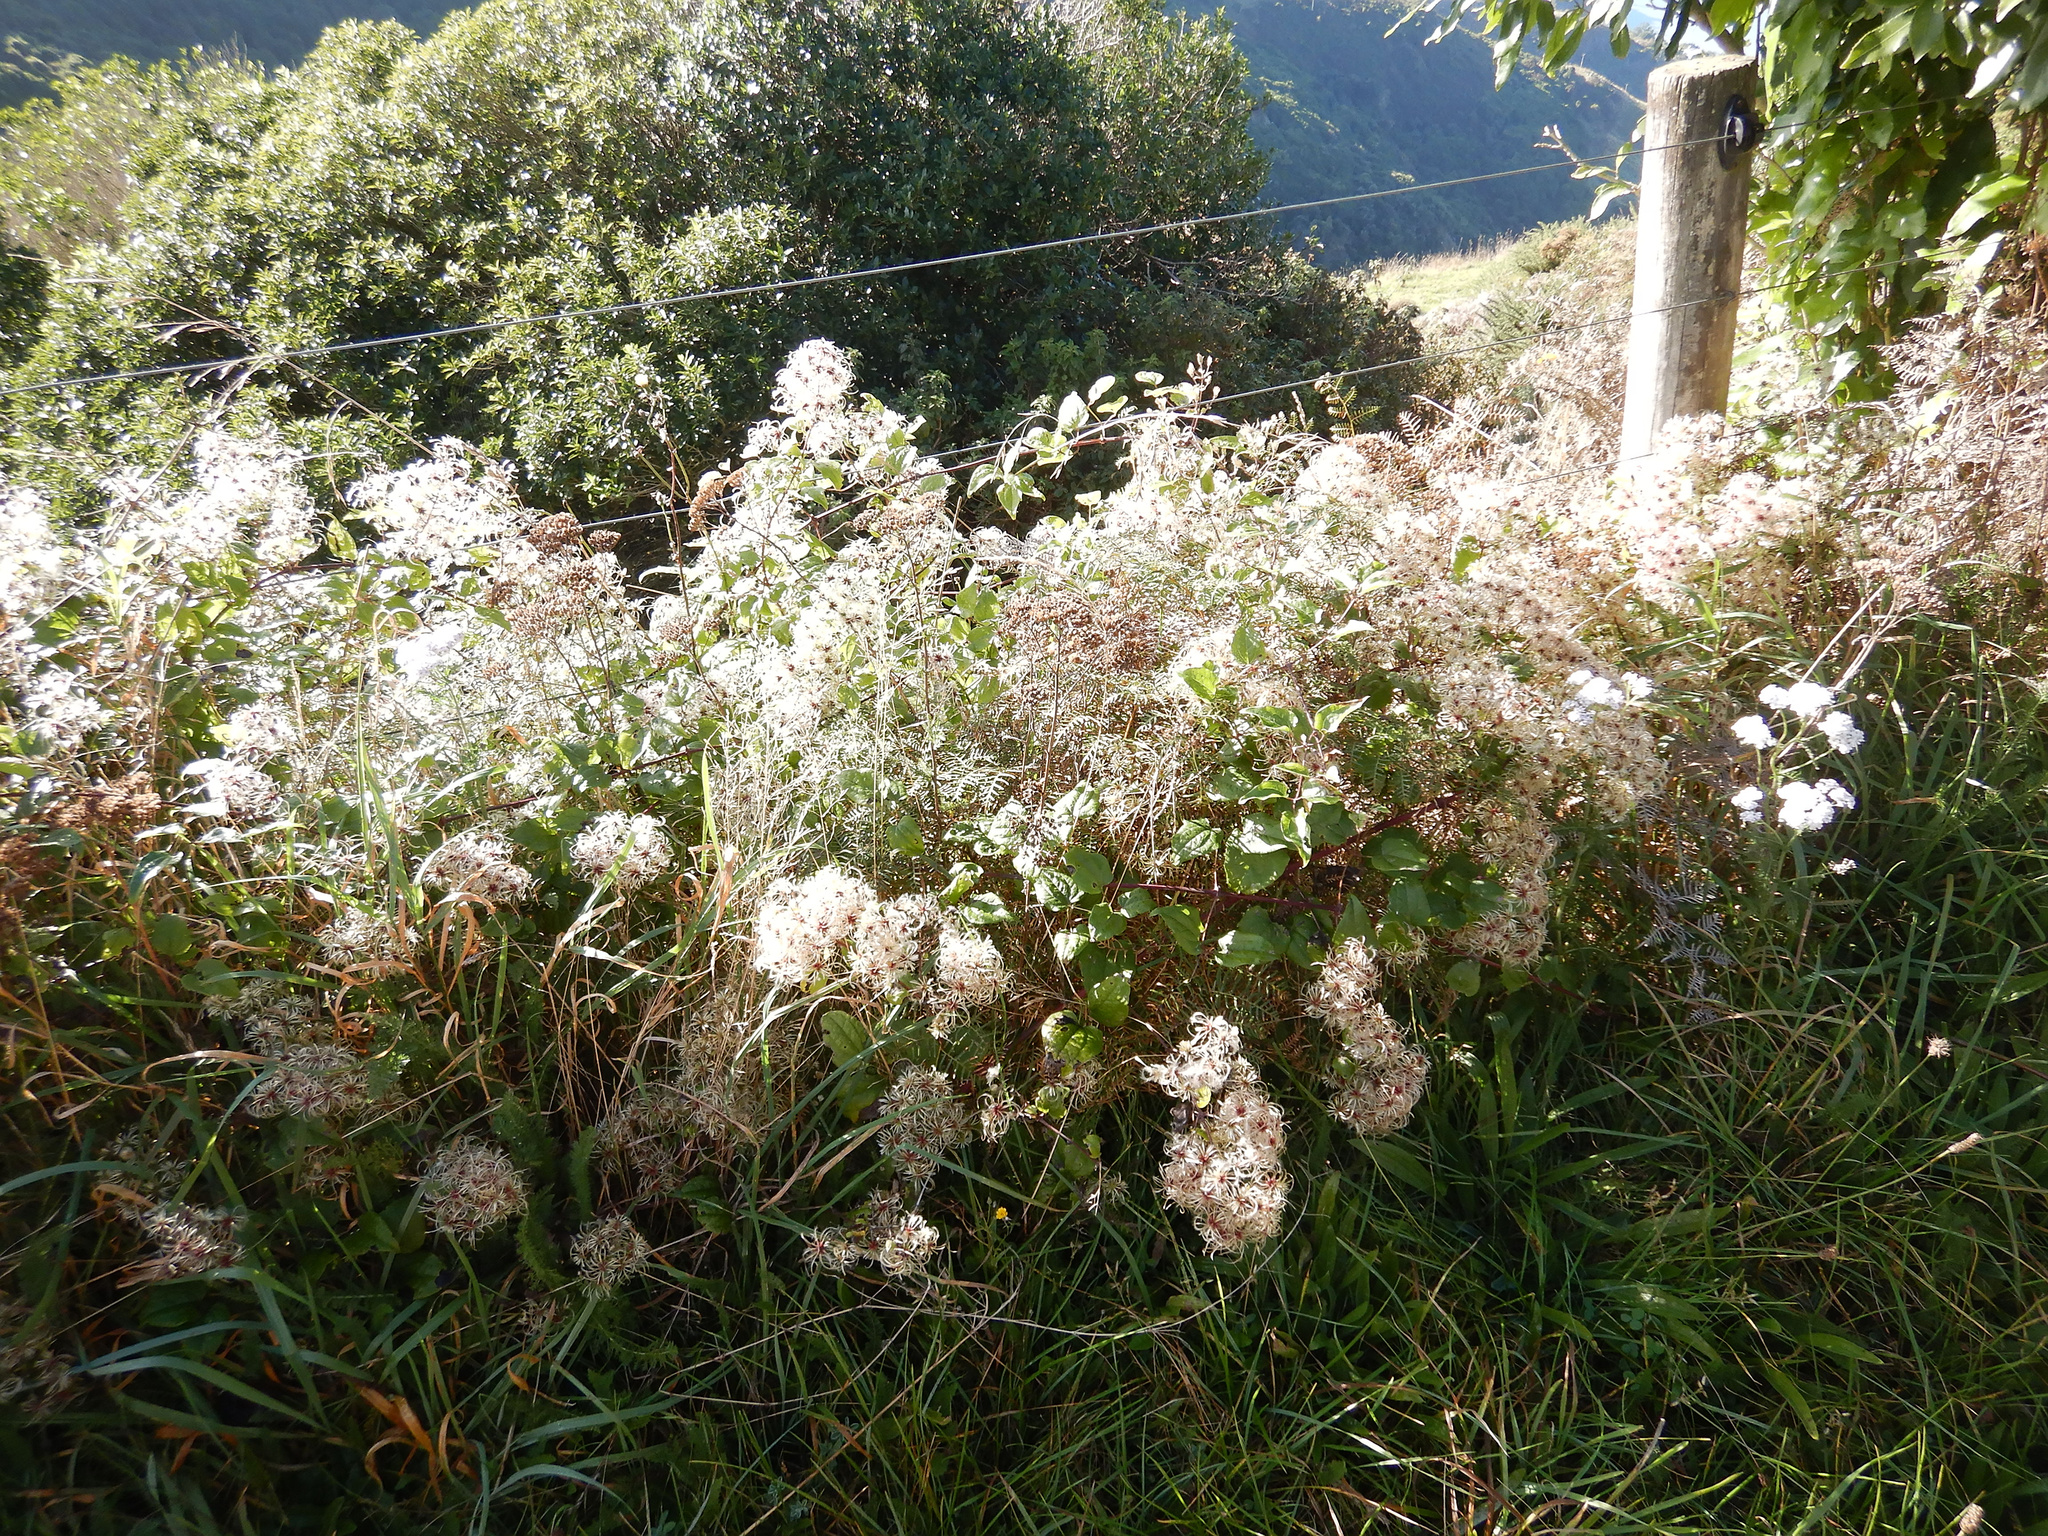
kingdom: Plantae
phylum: Tracheophyta
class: Magnoliopsida
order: Ranunculales
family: Ranunculaceae
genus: Clematis
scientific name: Clematis vitalba
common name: Evergreen clematis
